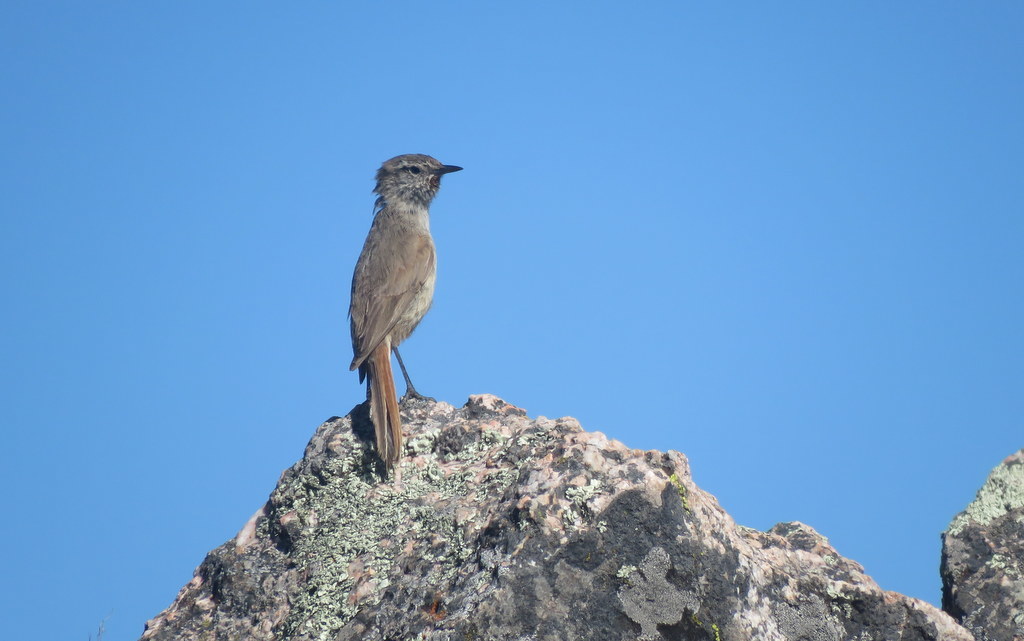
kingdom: Animalia
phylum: Chordata
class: Aves
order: Passeriformes
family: Furnariidae
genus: Asthenes
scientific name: Asthenes modesta
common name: Cordilleran canastero
